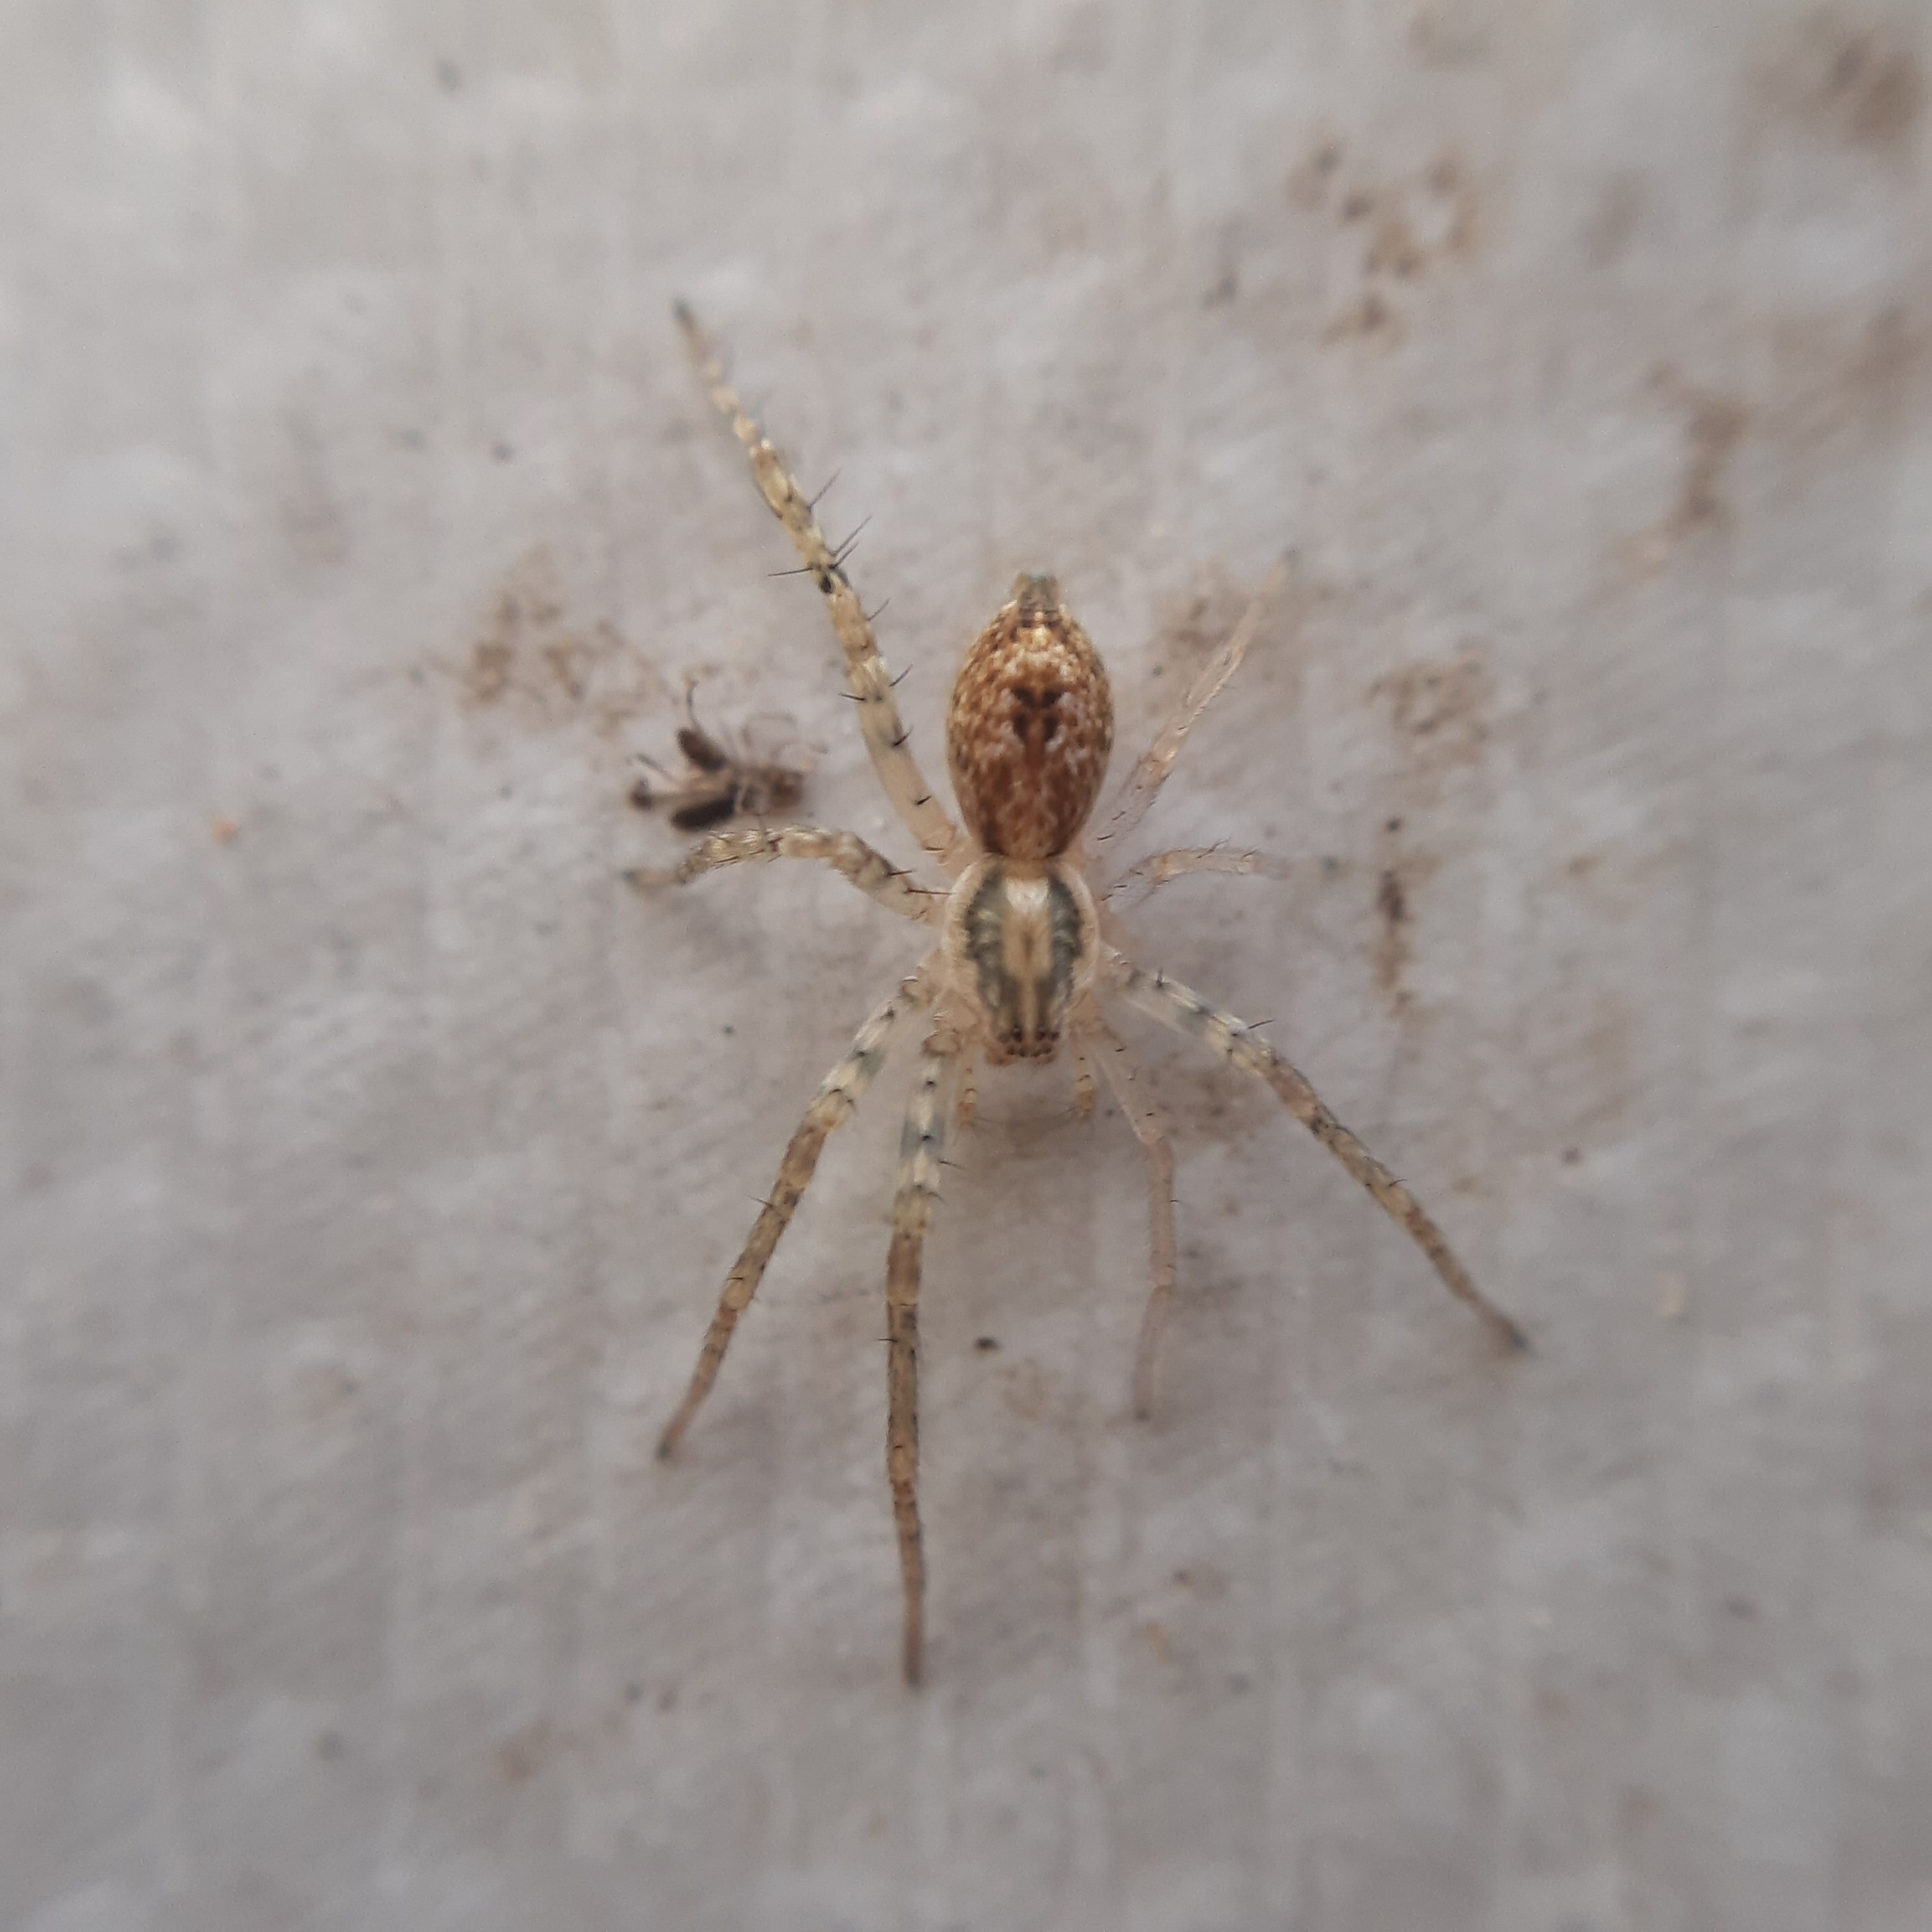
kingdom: Animalia
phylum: Arthropoda
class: Arachnida
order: Araneae
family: Anyphaenidae
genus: Anyphaena
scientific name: Anyphaena accentuata
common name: Buzzing spider
